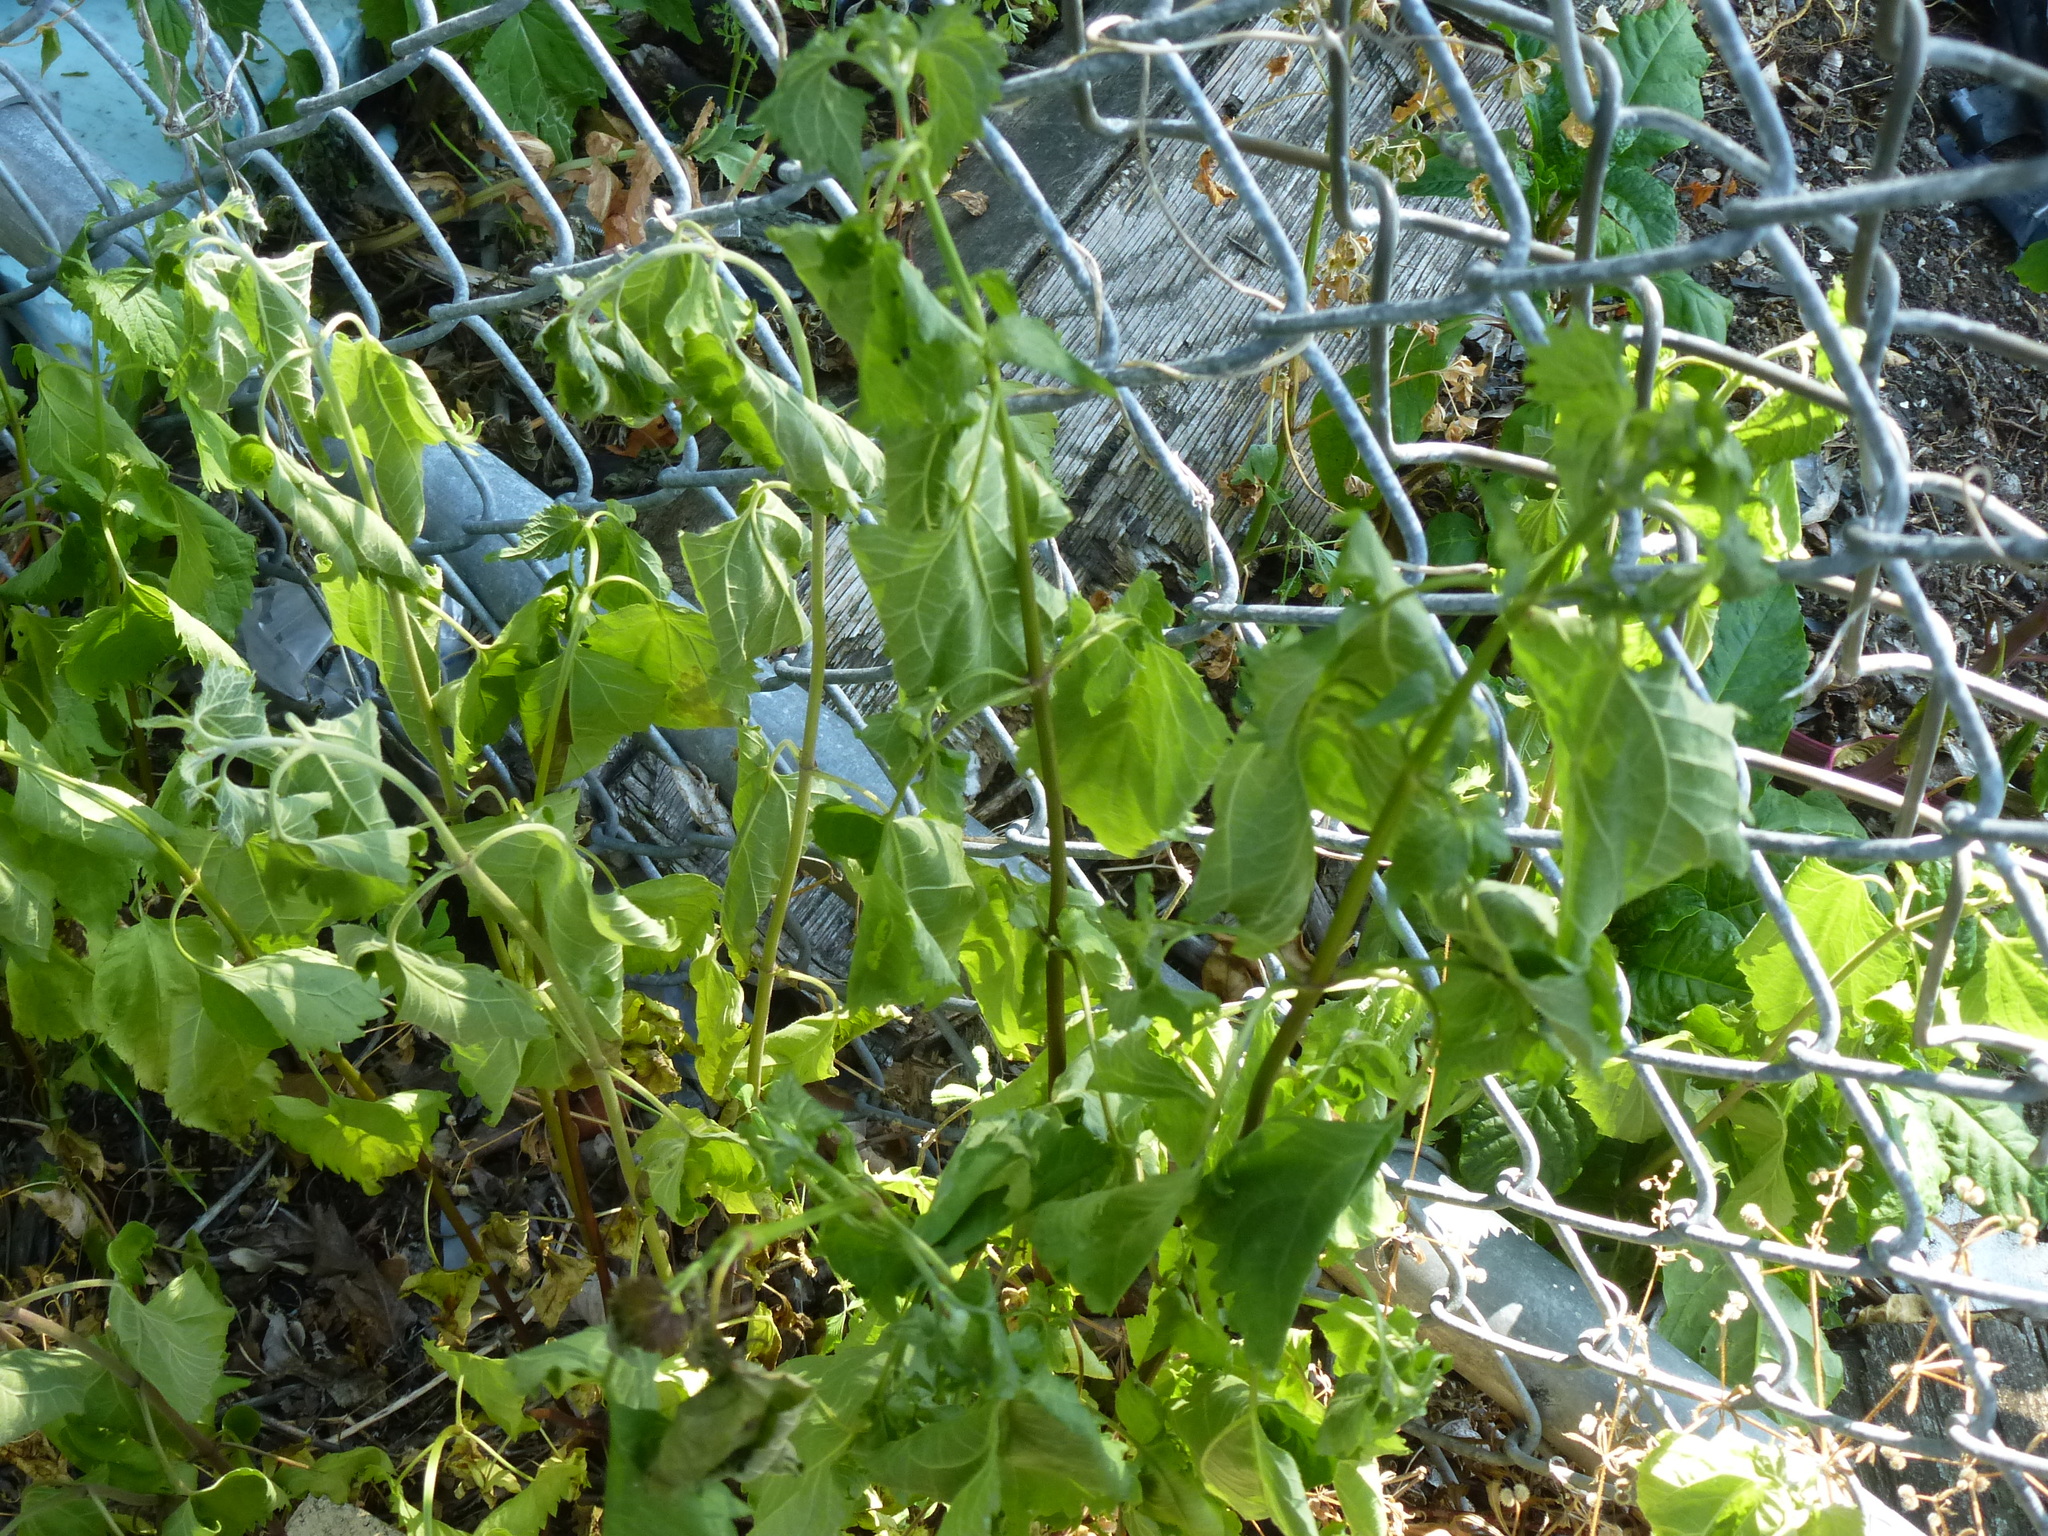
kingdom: Plantae
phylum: Tracheophyta
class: Magnoliopsida
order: Asterales
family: Asteraceae
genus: Ageratina
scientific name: Ageratina altissima
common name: White snakeroot
